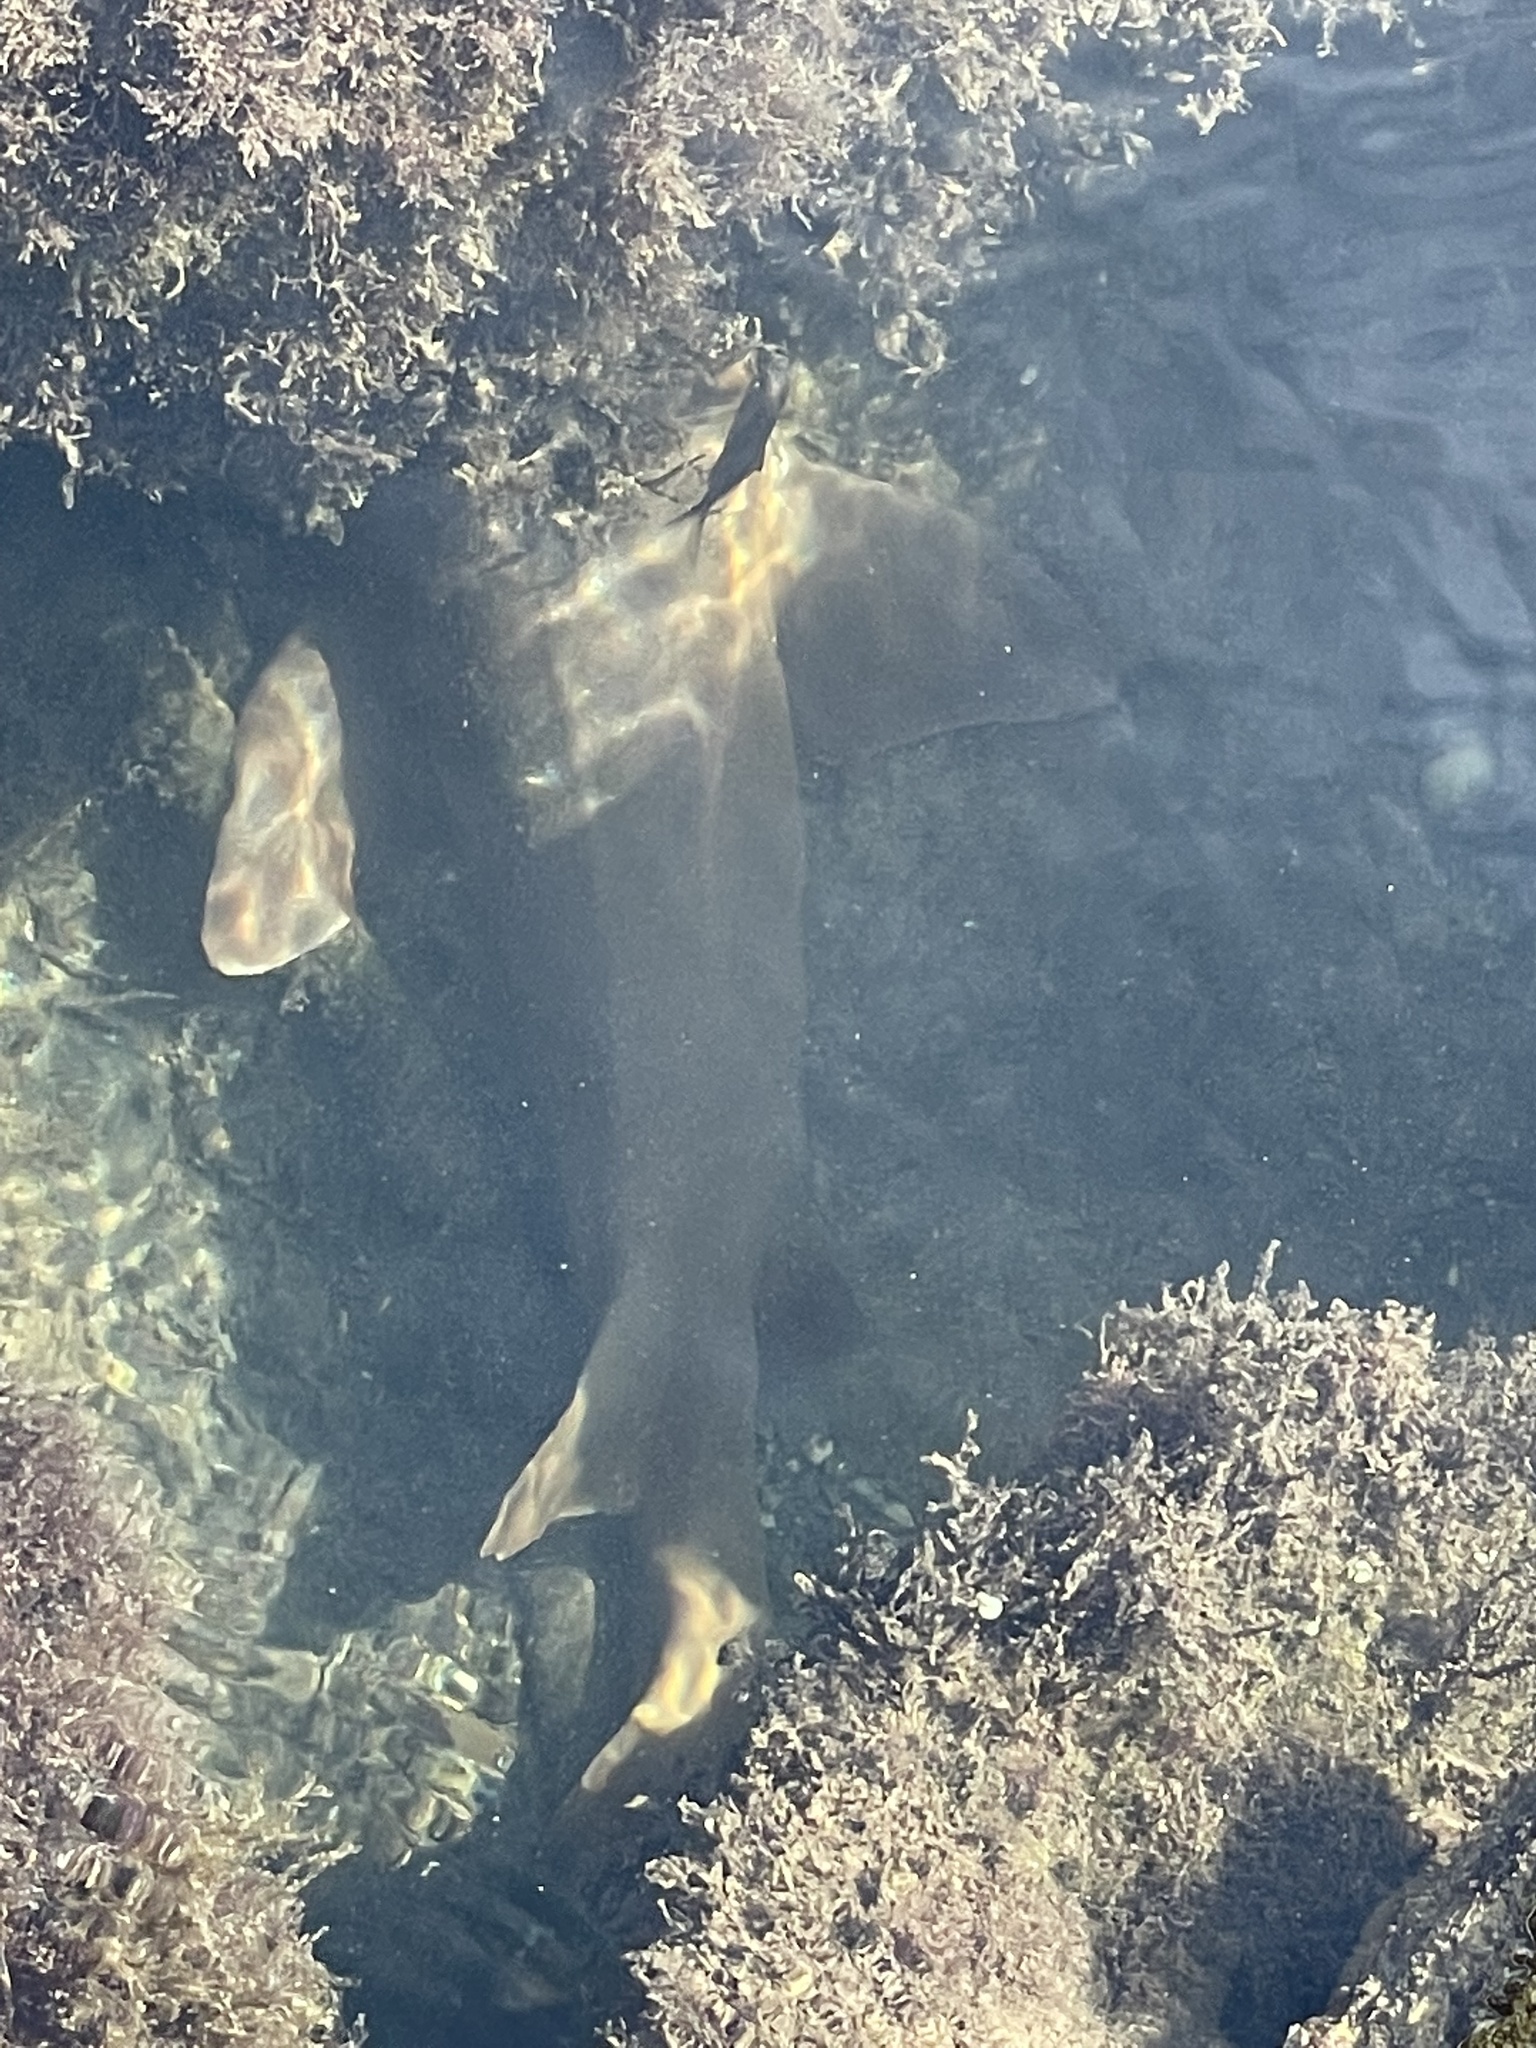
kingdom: Animalia
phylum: Chordata
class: Elasmobranchii
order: Orectolobiformes
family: Ginglymostomatidae
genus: Ginglymostoma
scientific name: Ginglymostoma cirratum
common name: Nurse shark
